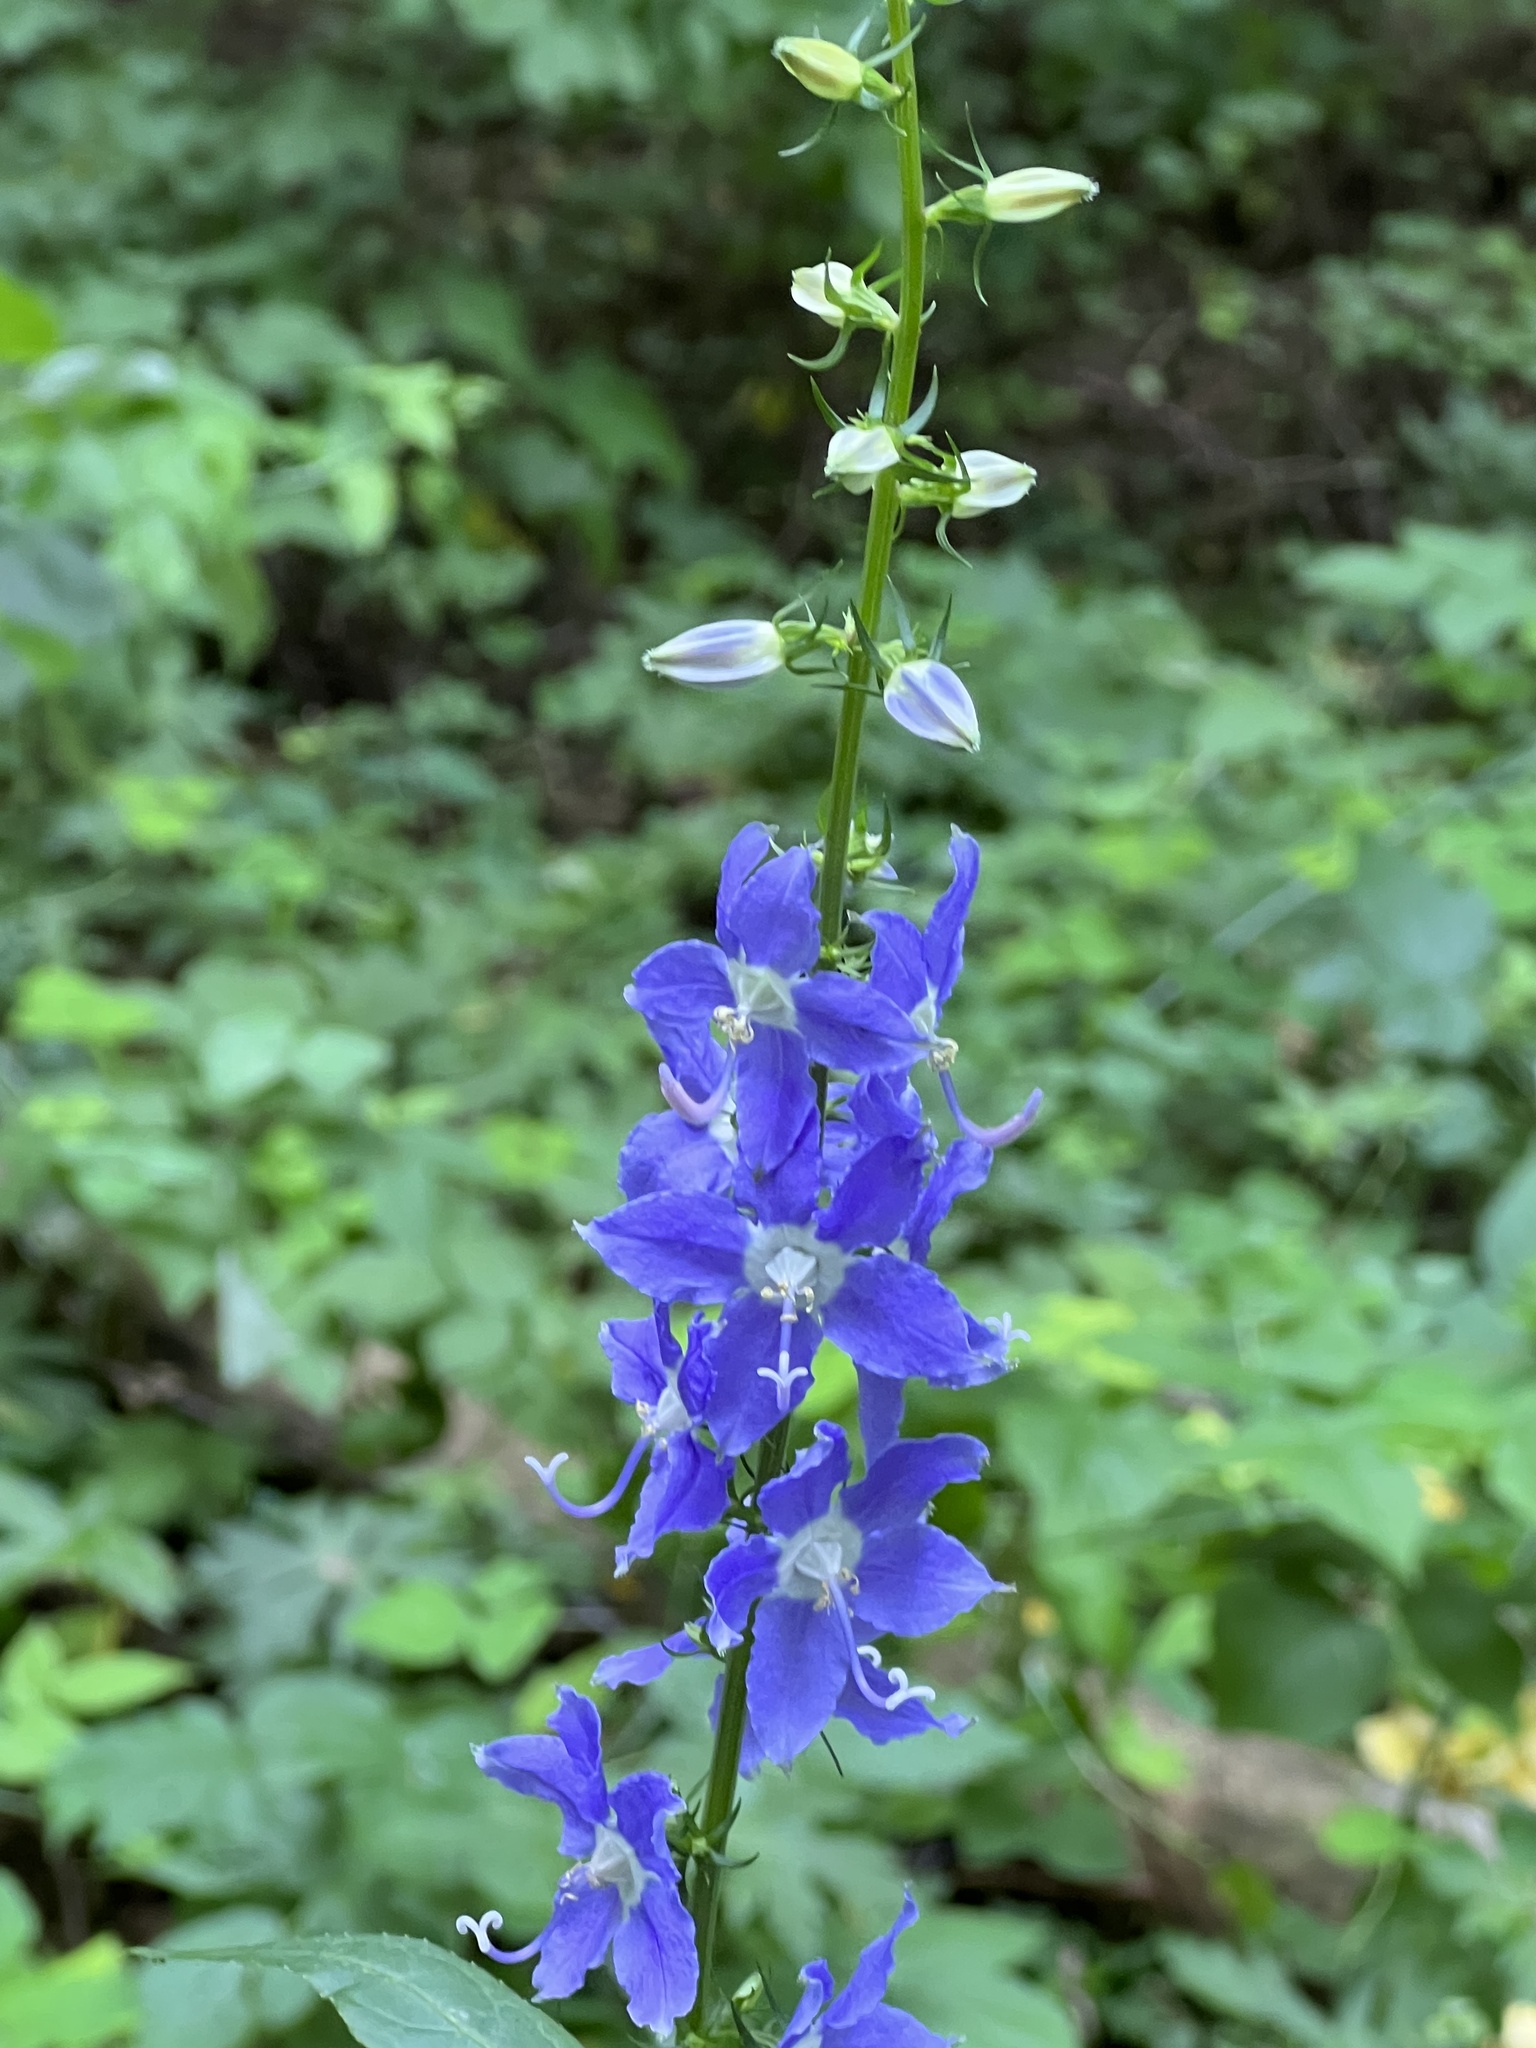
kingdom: Plantae
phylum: Tracheophyta
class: Magnoliopsida
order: Asterales
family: Campanulaceae
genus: Campanulastrum
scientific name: Campanulastrum americanum
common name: American bellflower
